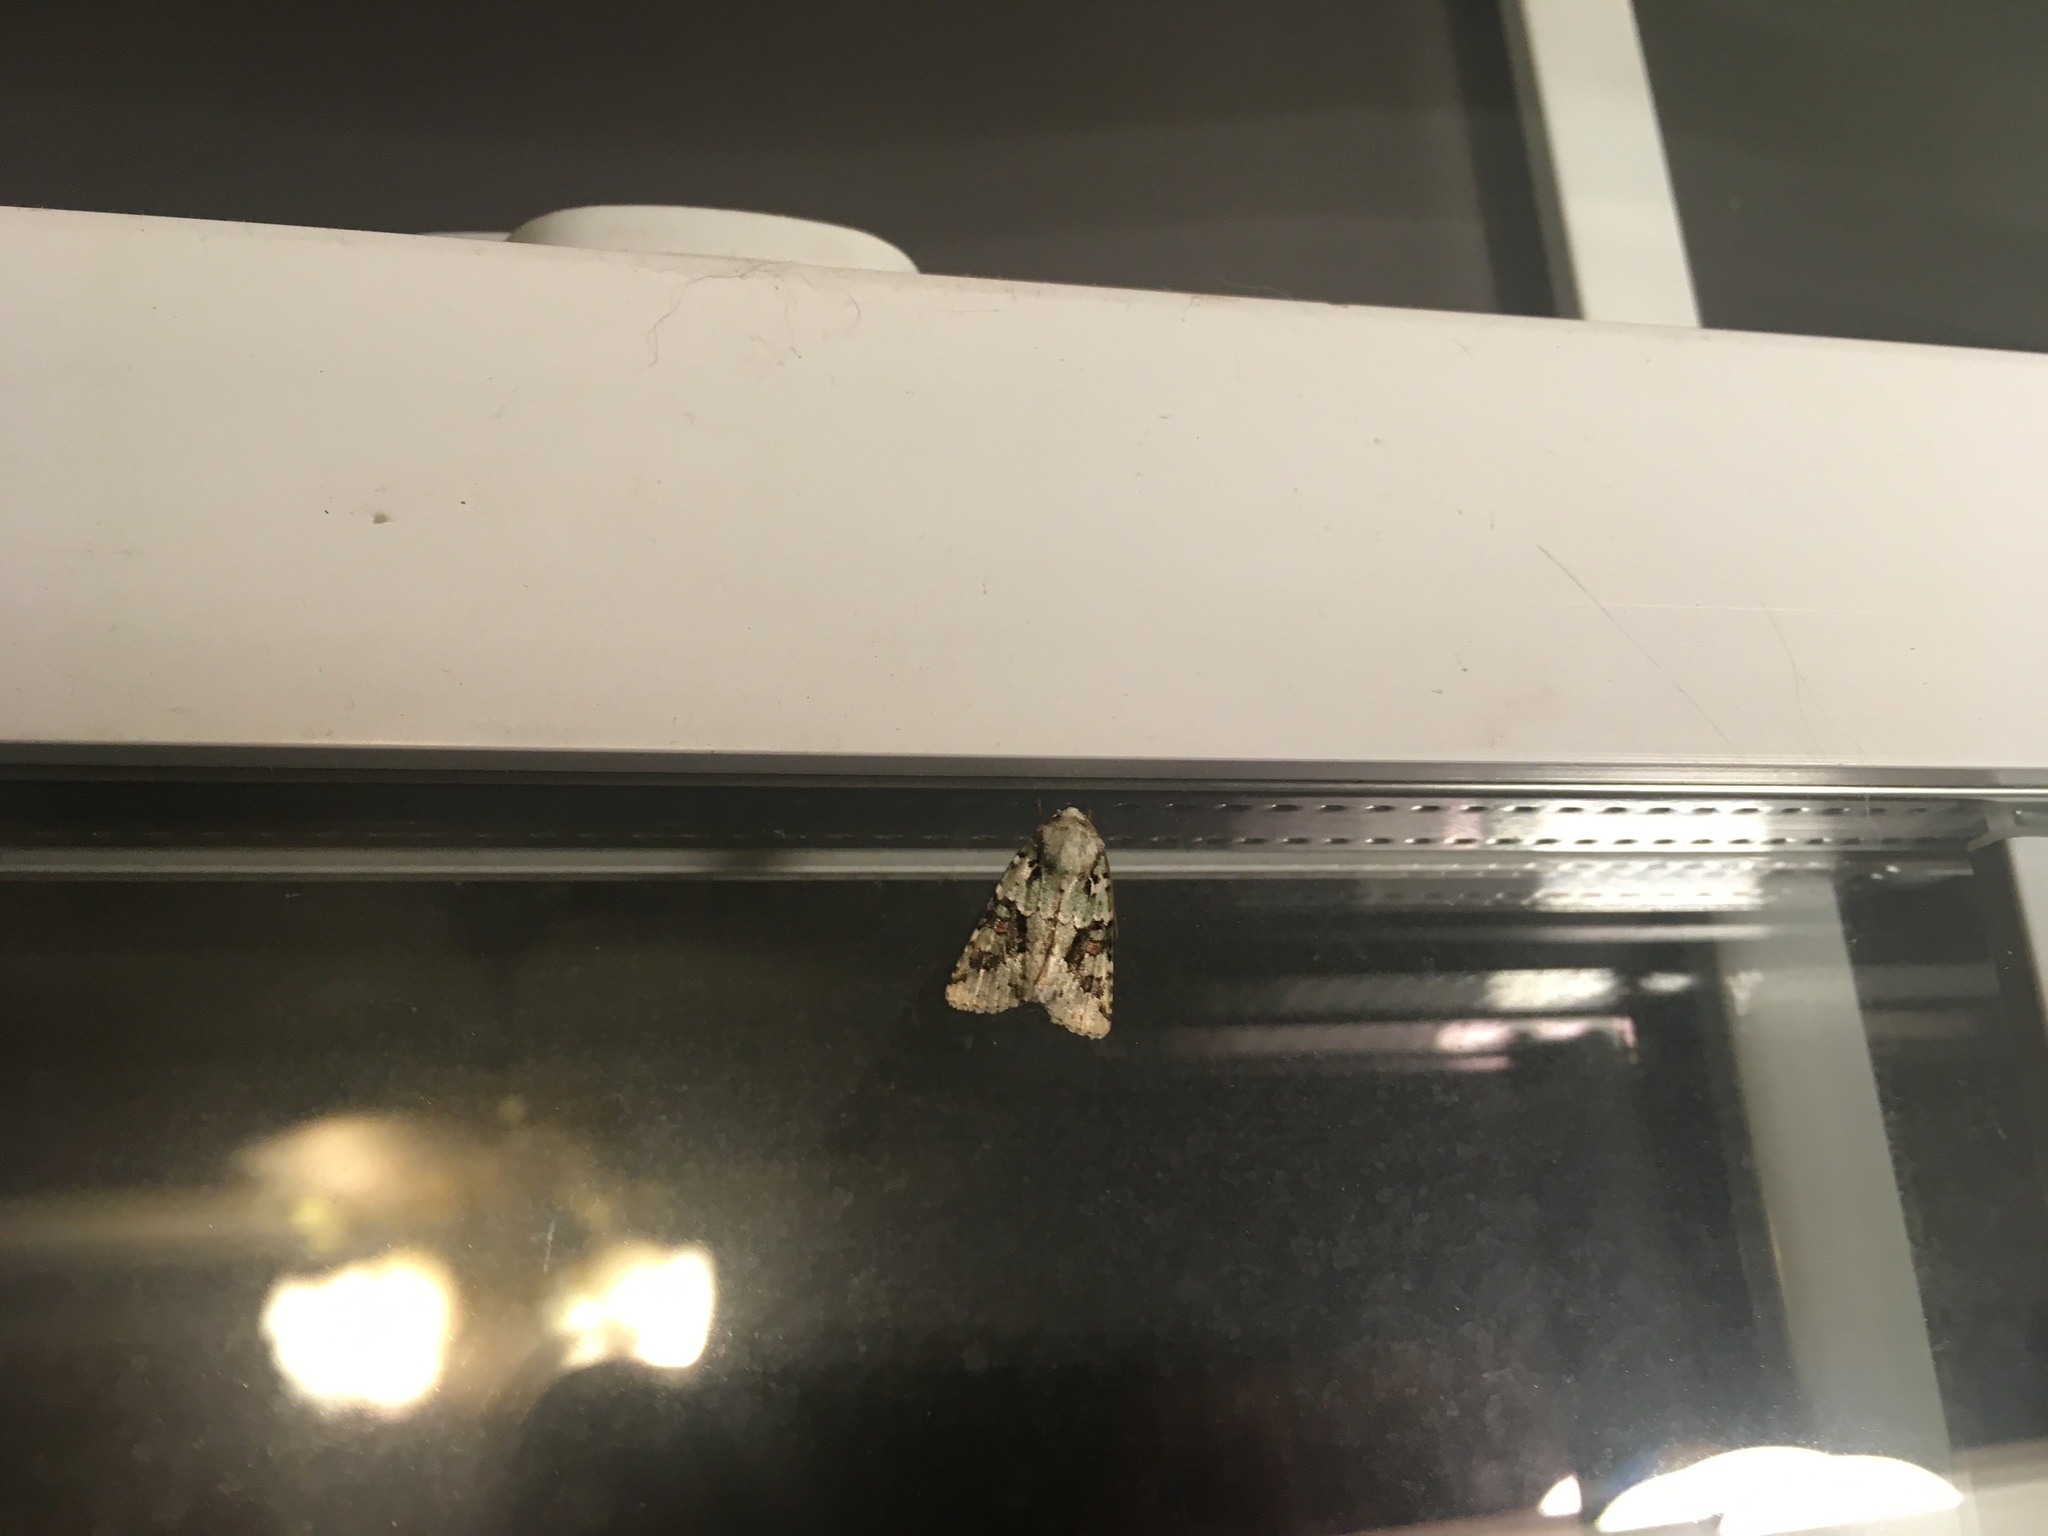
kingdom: Animalia
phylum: Arthropoda
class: Insecta
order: Lepidoptera
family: Noctuidae
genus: Lacinipolia
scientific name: Lacinipolia implicata
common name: Implicit arches
